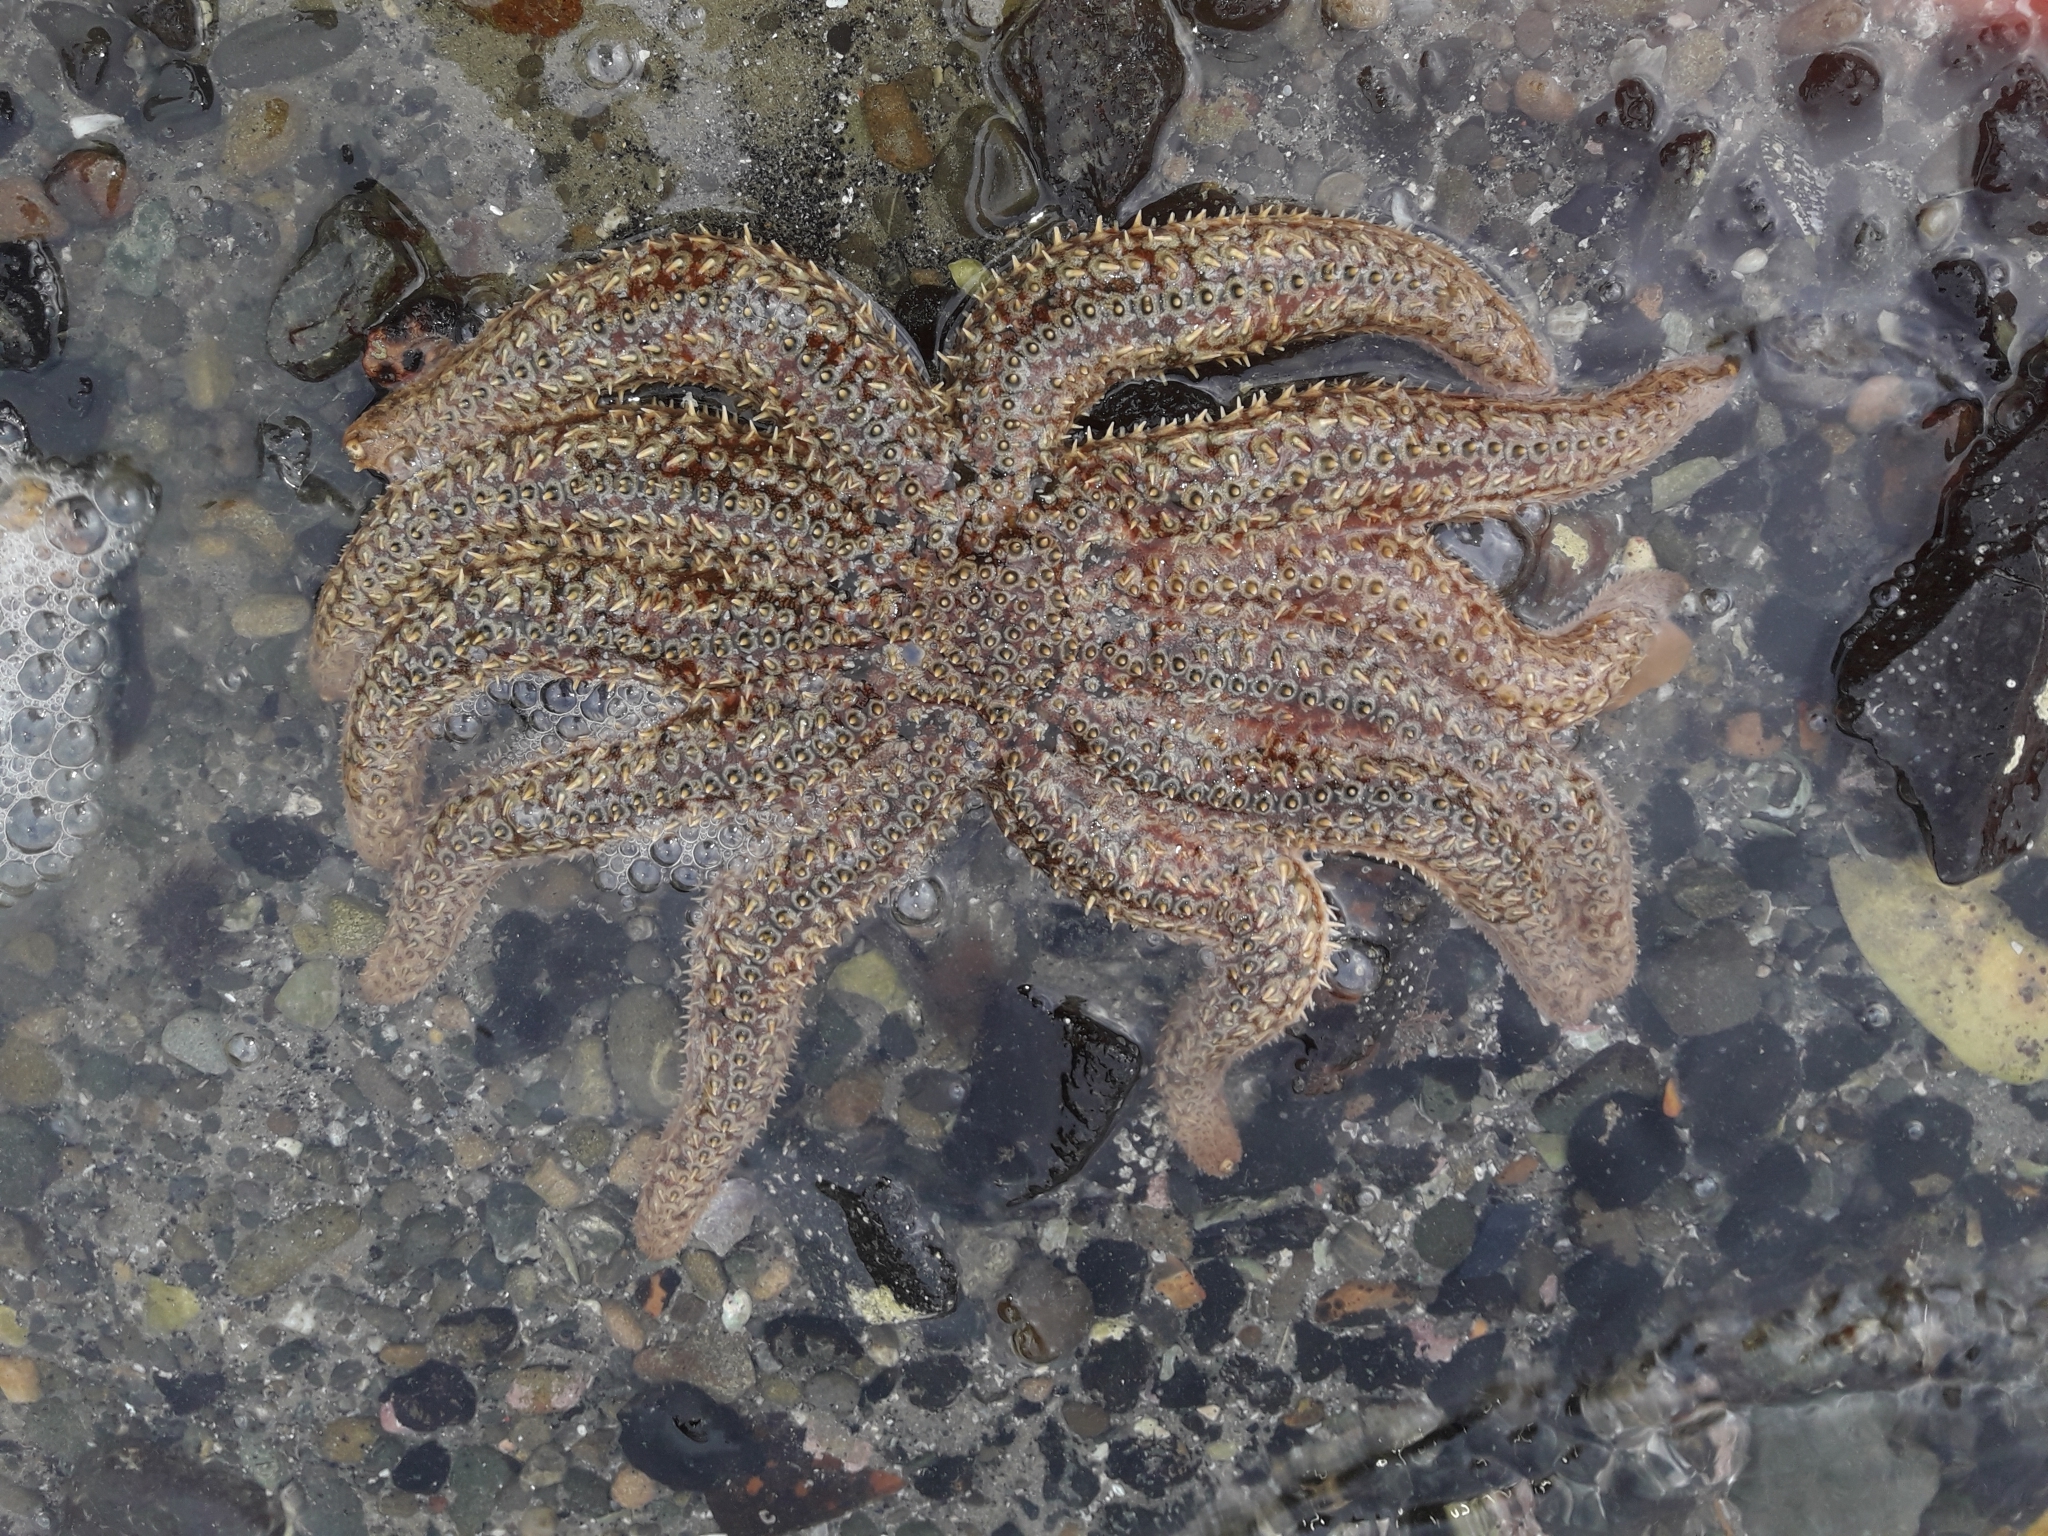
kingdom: Animalia
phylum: Echinodermata
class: Asteroidea
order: Forcipulatida
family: Asteriidae
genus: Coscinasterias
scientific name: Coscinasterias muricata
